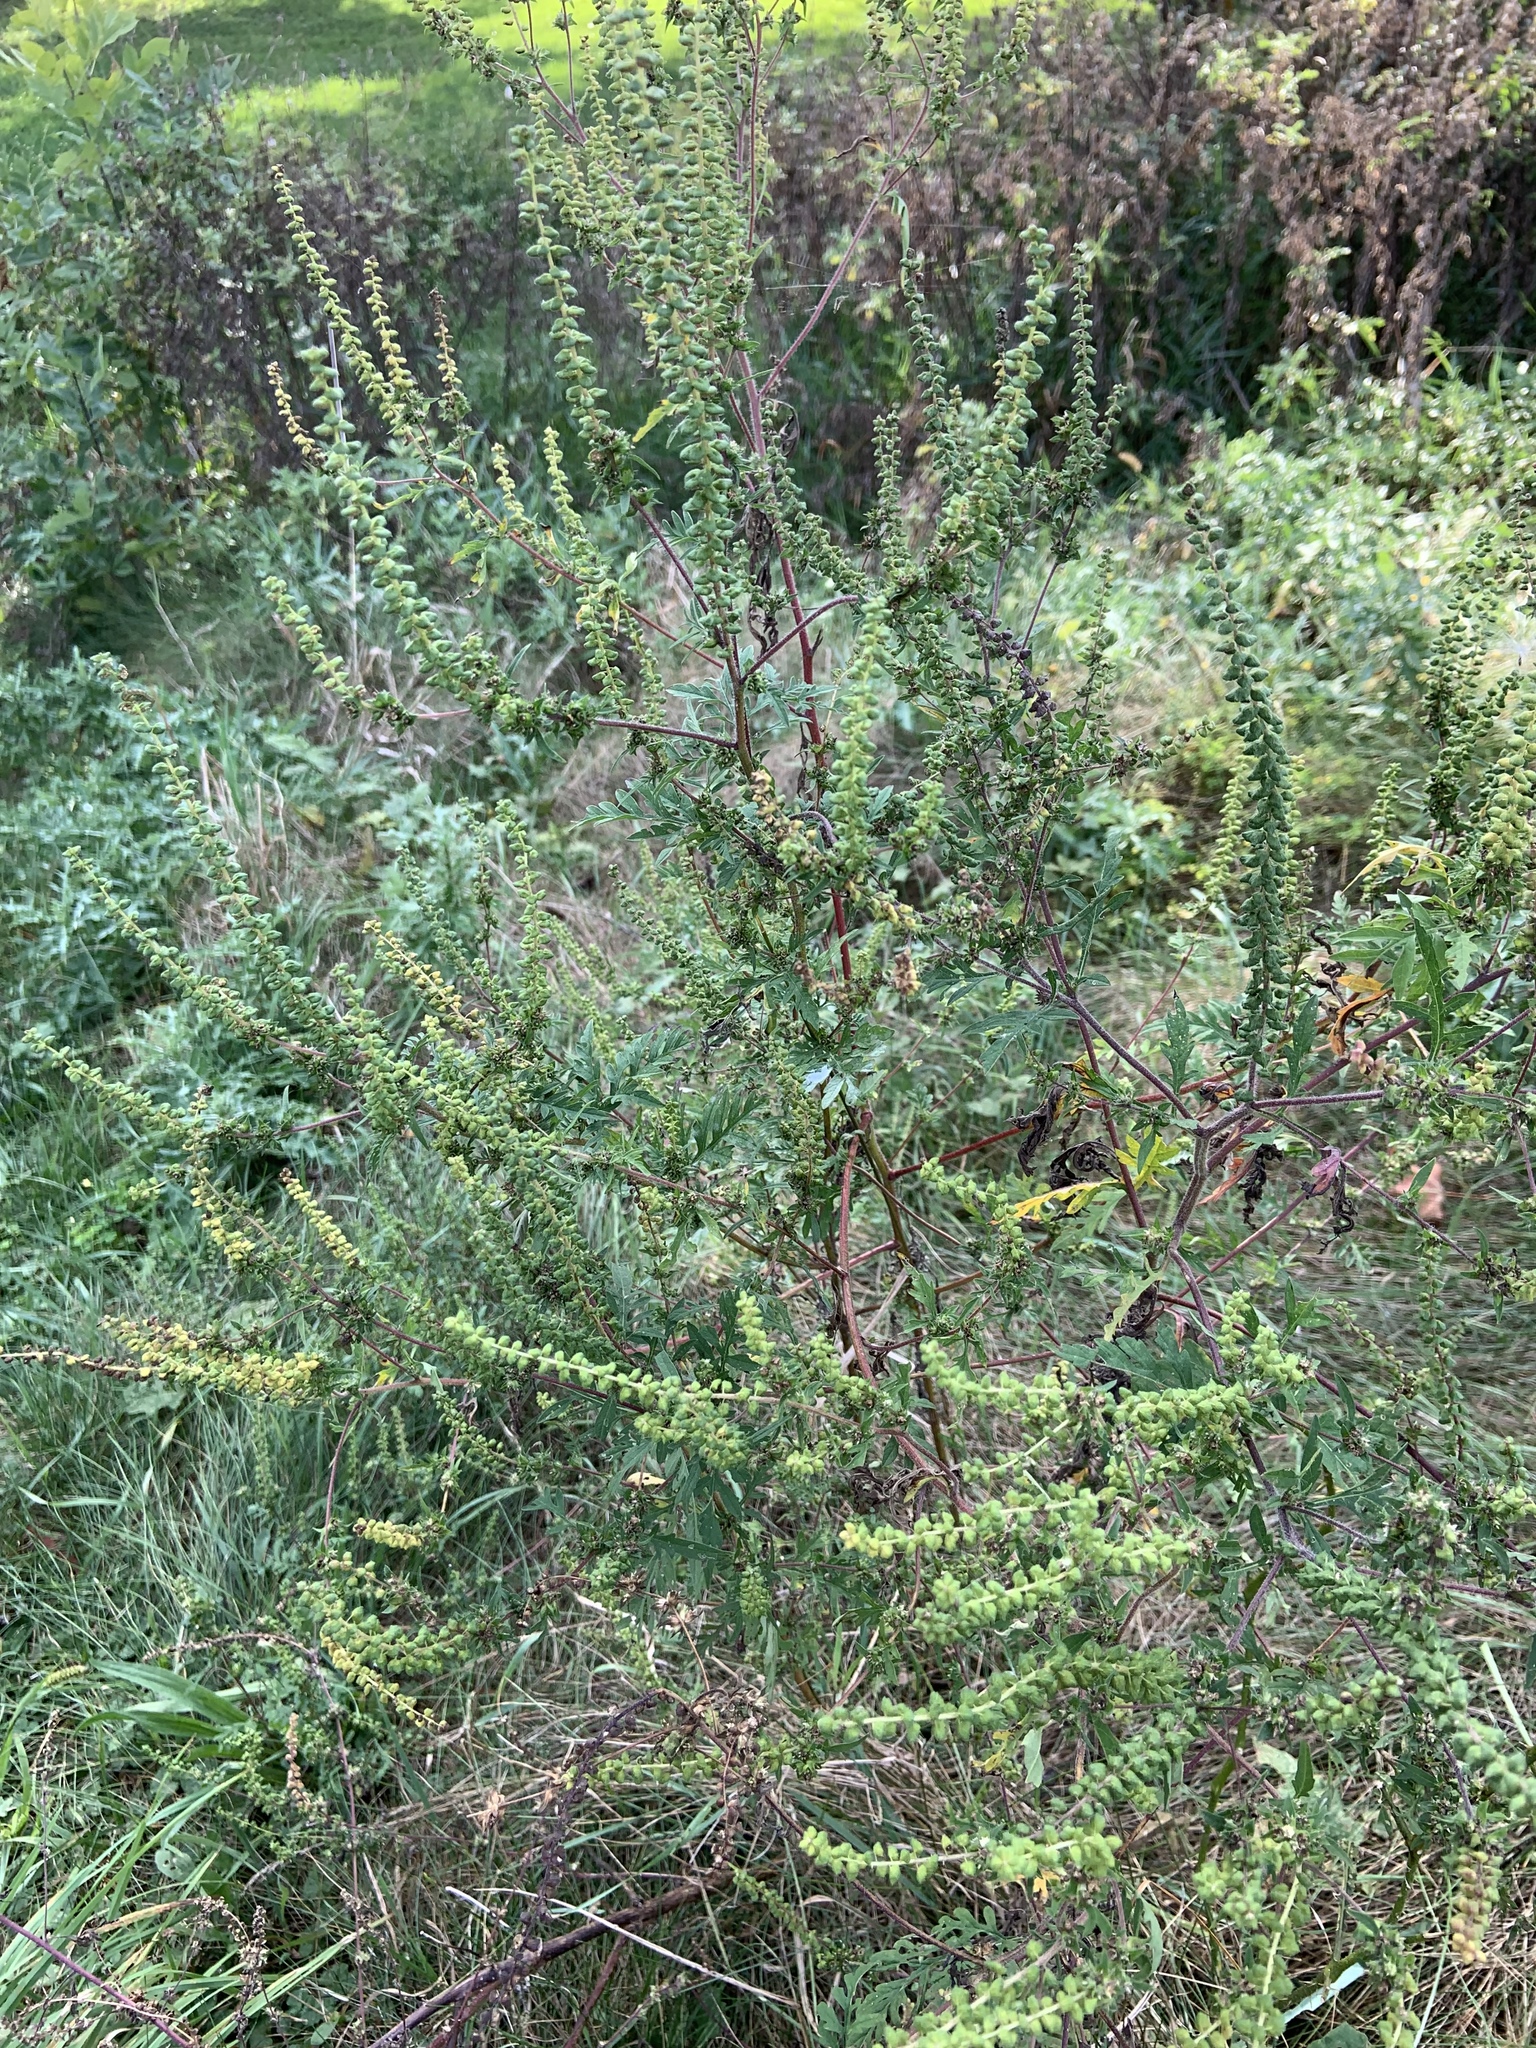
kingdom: Plantae
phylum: Tracheophyta
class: Magnoliopsida
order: Asterales
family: Asteraceae
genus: Ambrosia
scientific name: Ambrosia artemisiifolia
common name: Annual ragweed
